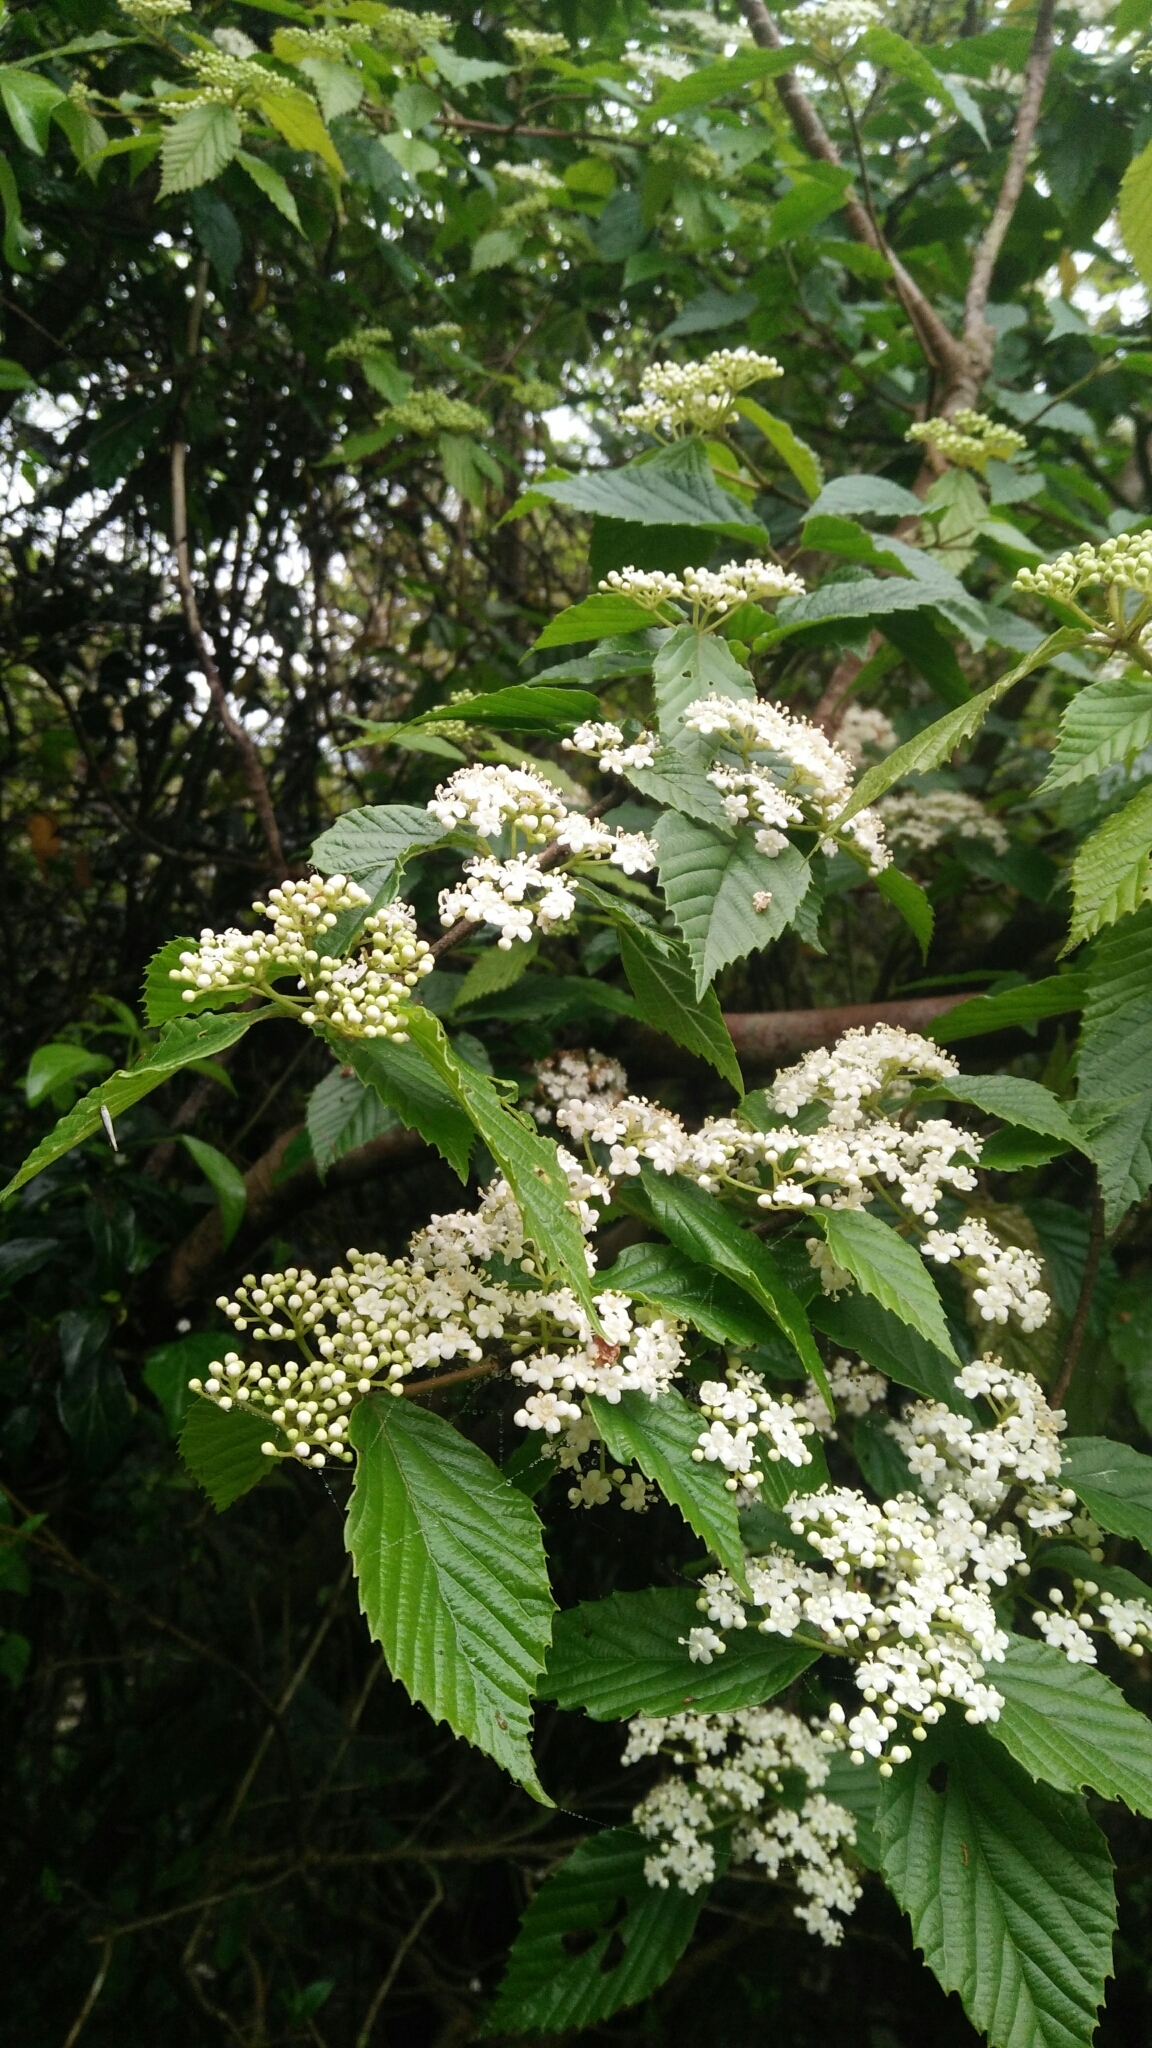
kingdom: Plantae
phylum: Tracheophyta
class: Magnoliopsida
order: Dipsacales
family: Viburnaceae
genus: Viburnum
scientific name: Viburnum luzonicum
